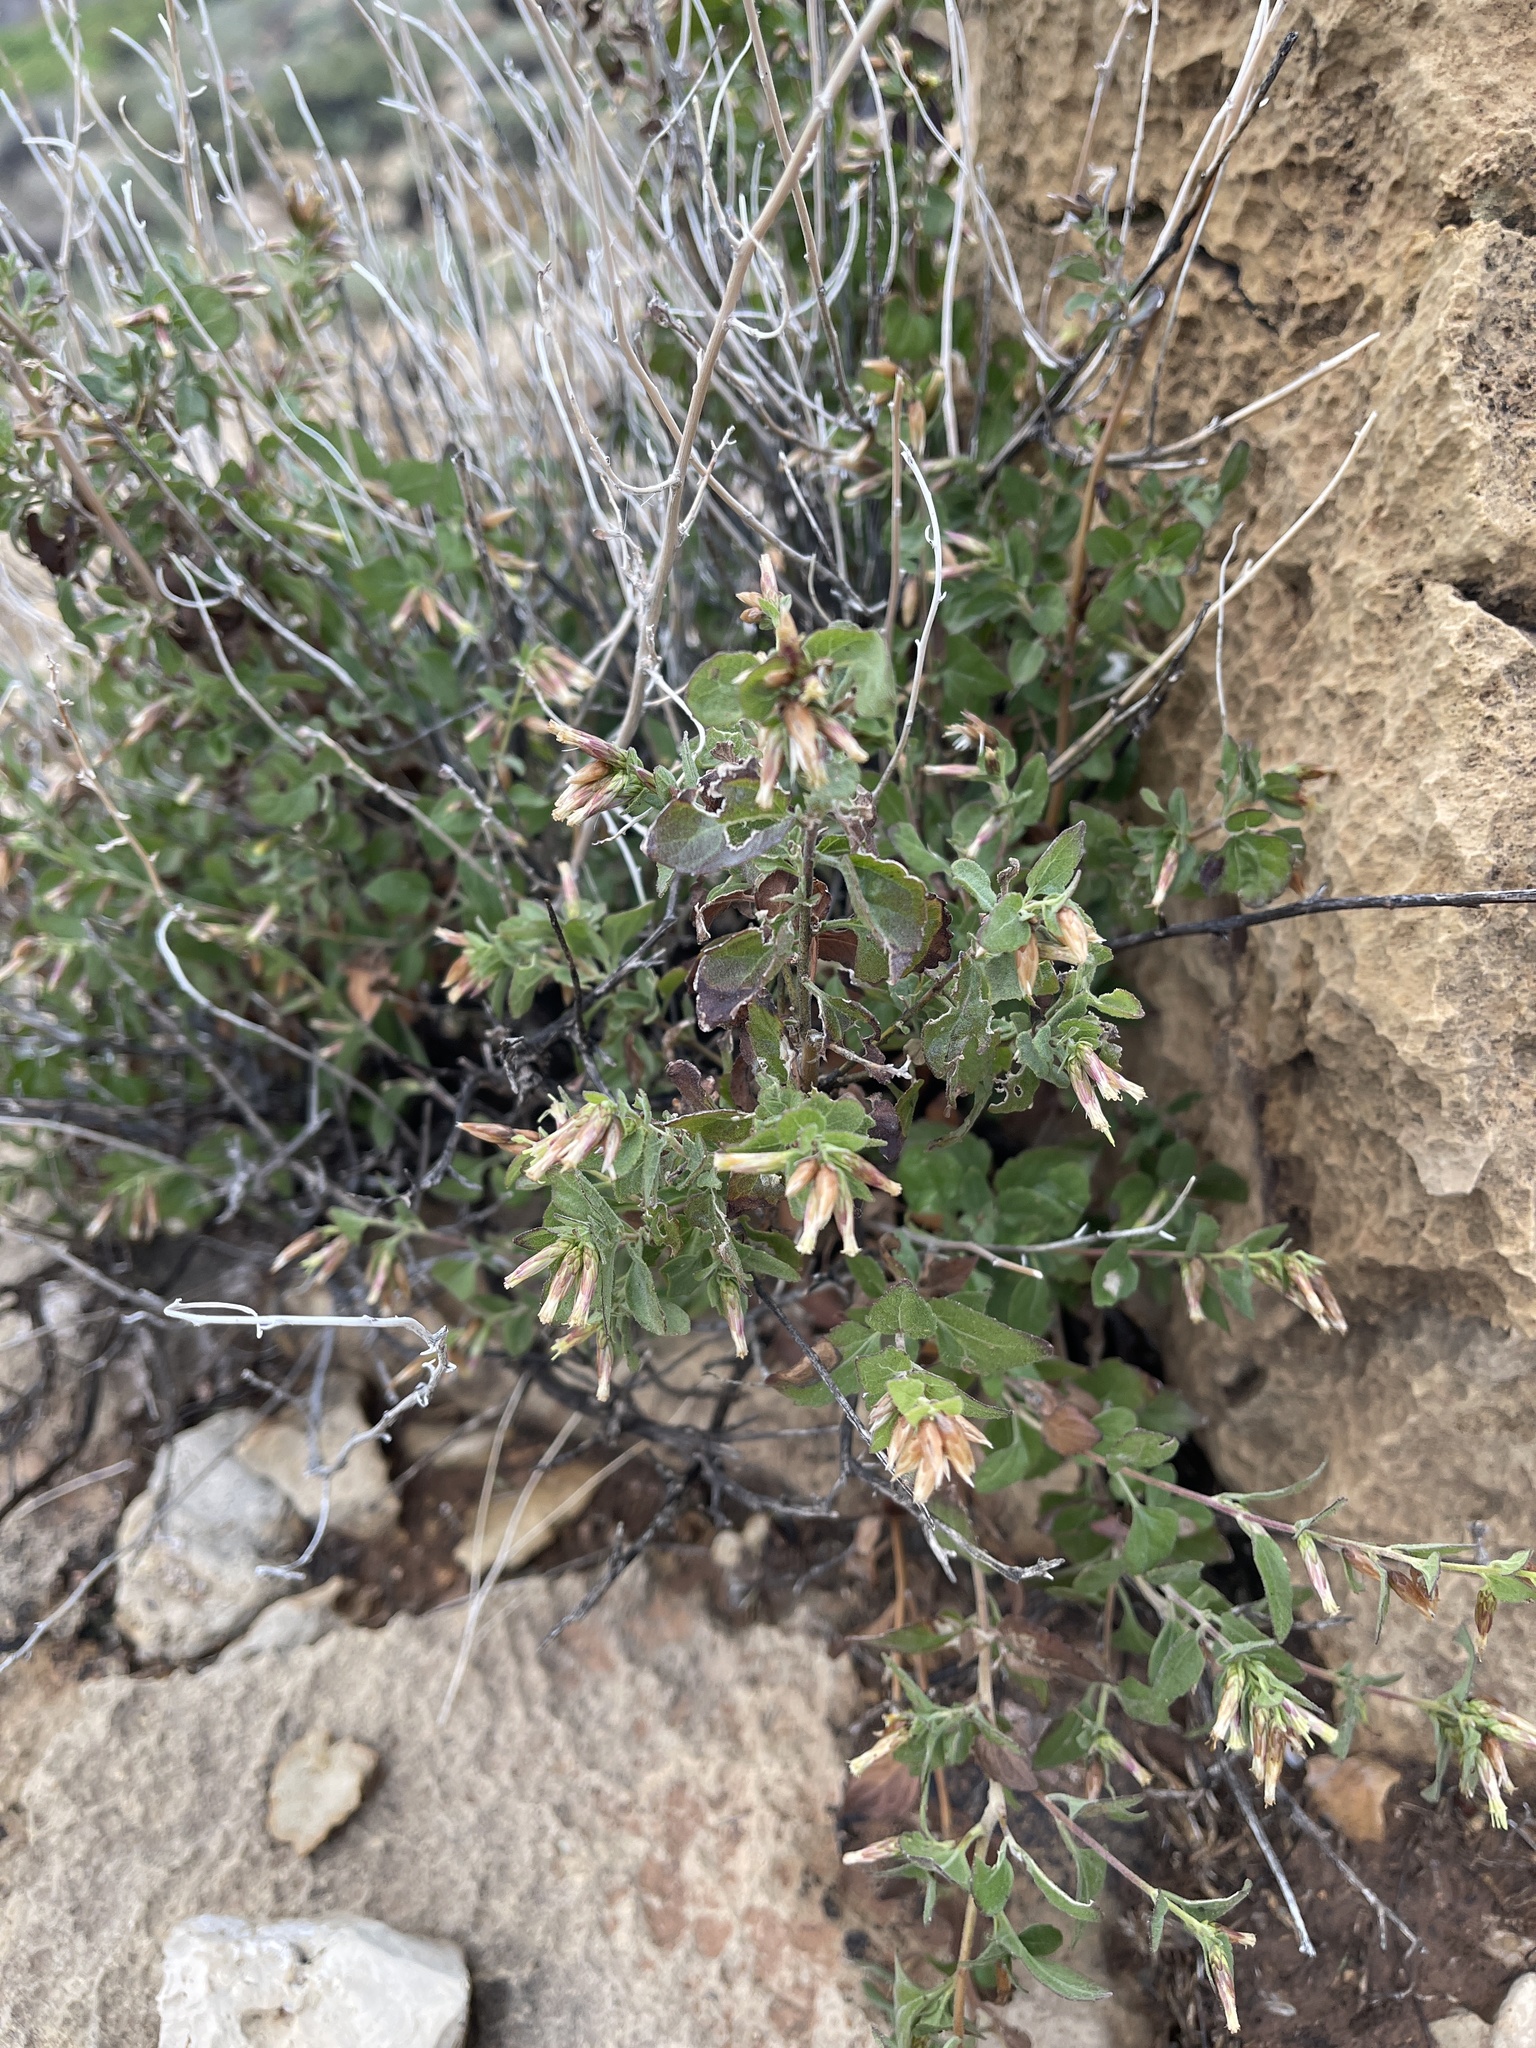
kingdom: Plantae
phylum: Tracheophyta
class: Magnoliopsida
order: Asterales
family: Asteraceae
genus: Brickellia
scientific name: Brickellia californica
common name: California brickellbush
